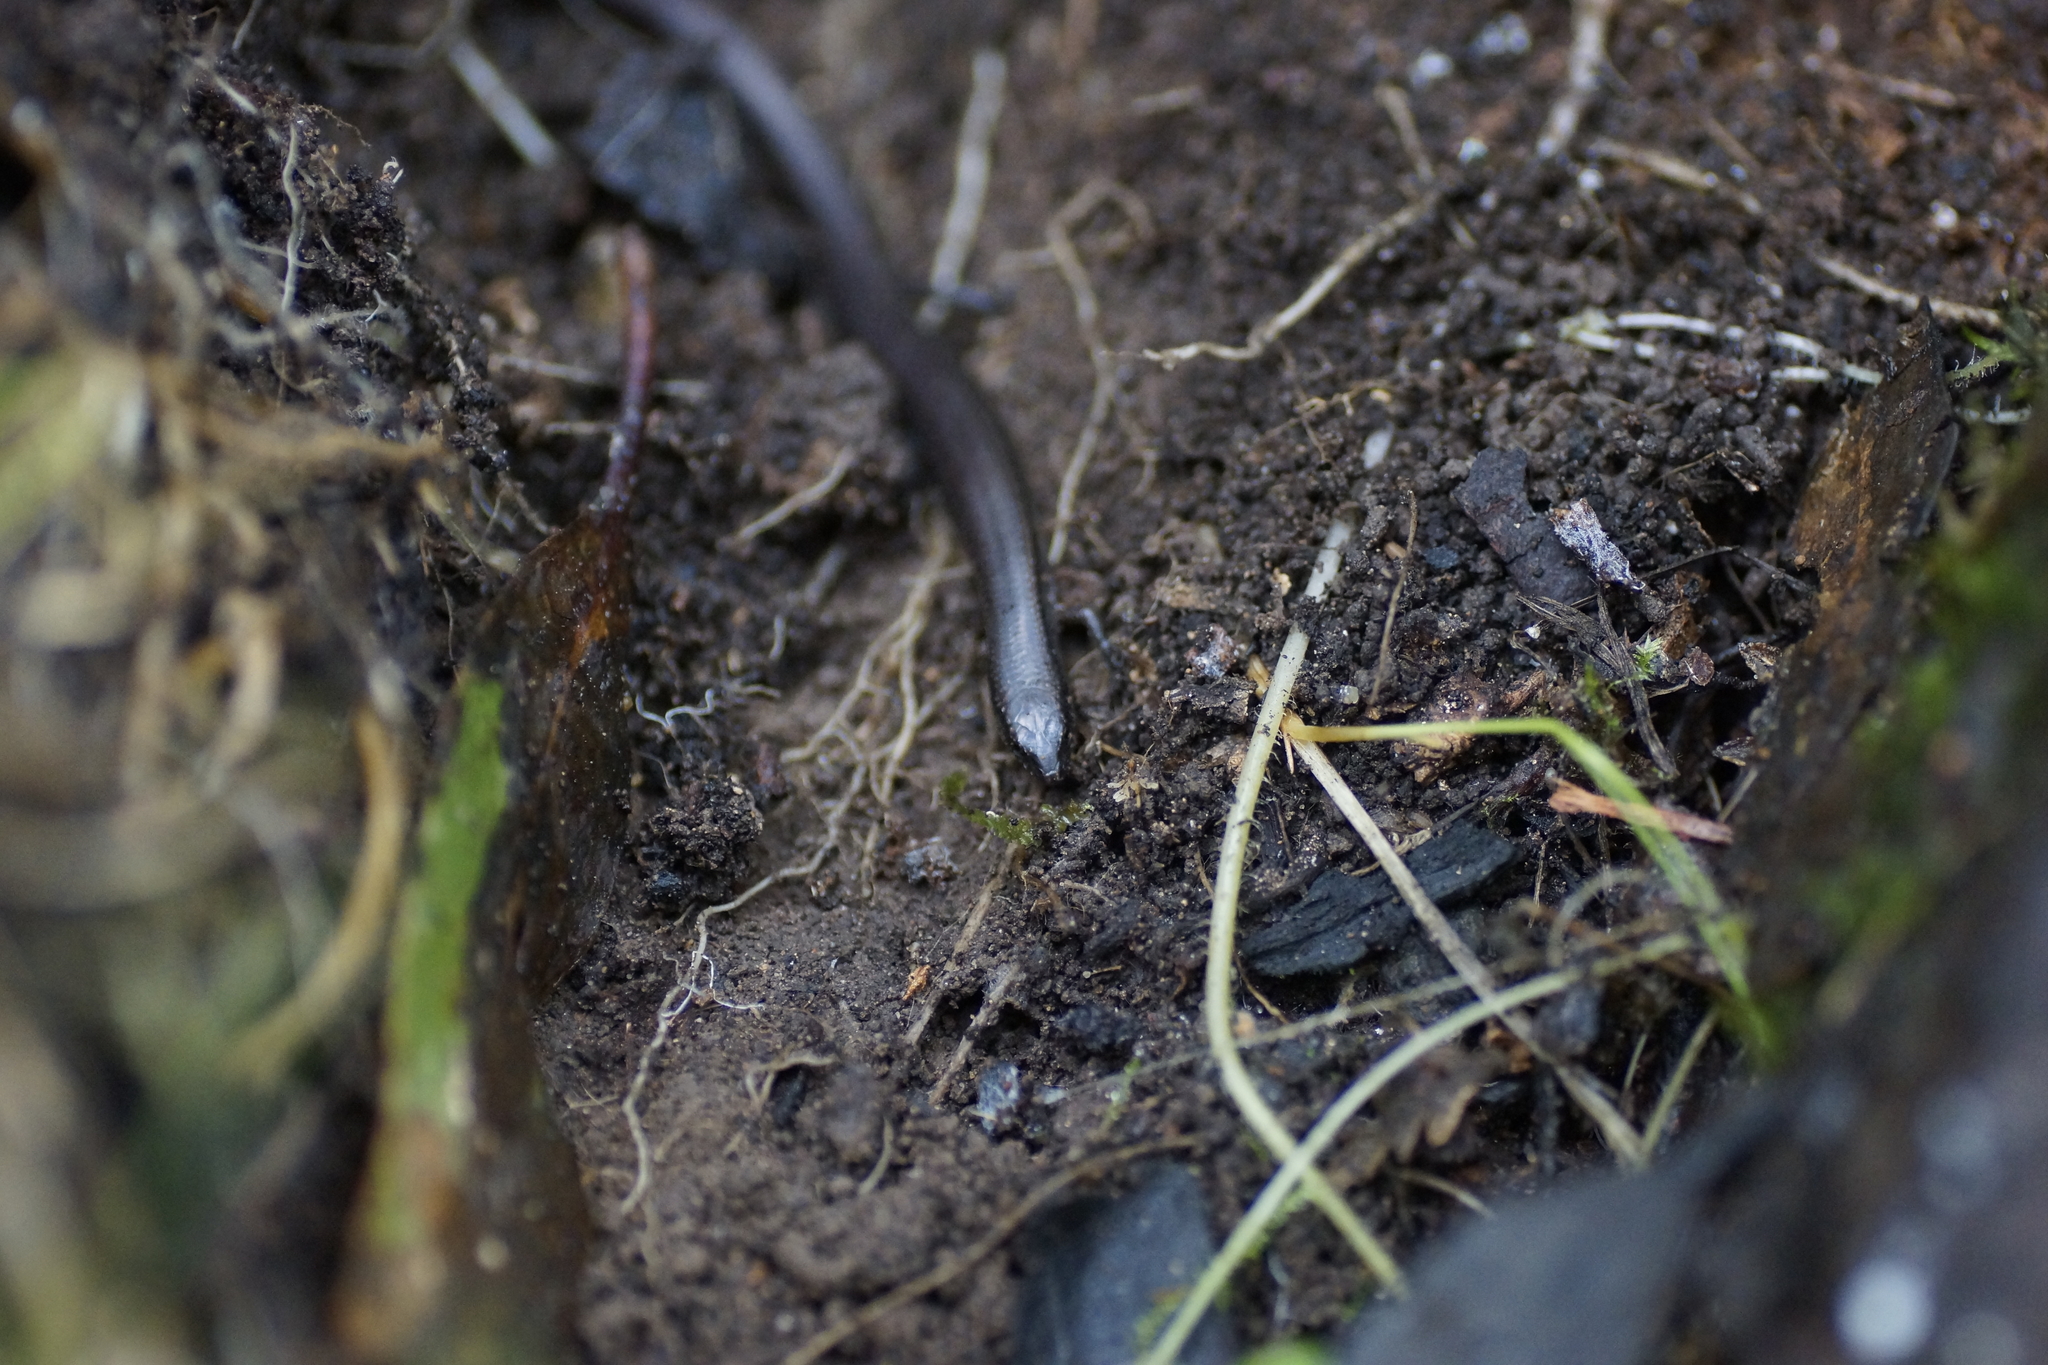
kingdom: Animalia
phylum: Chordata
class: Squamata
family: Scincidae
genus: Anepischetosia
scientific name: Anepischetosia maccoyi
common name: Highlands forest-skink
